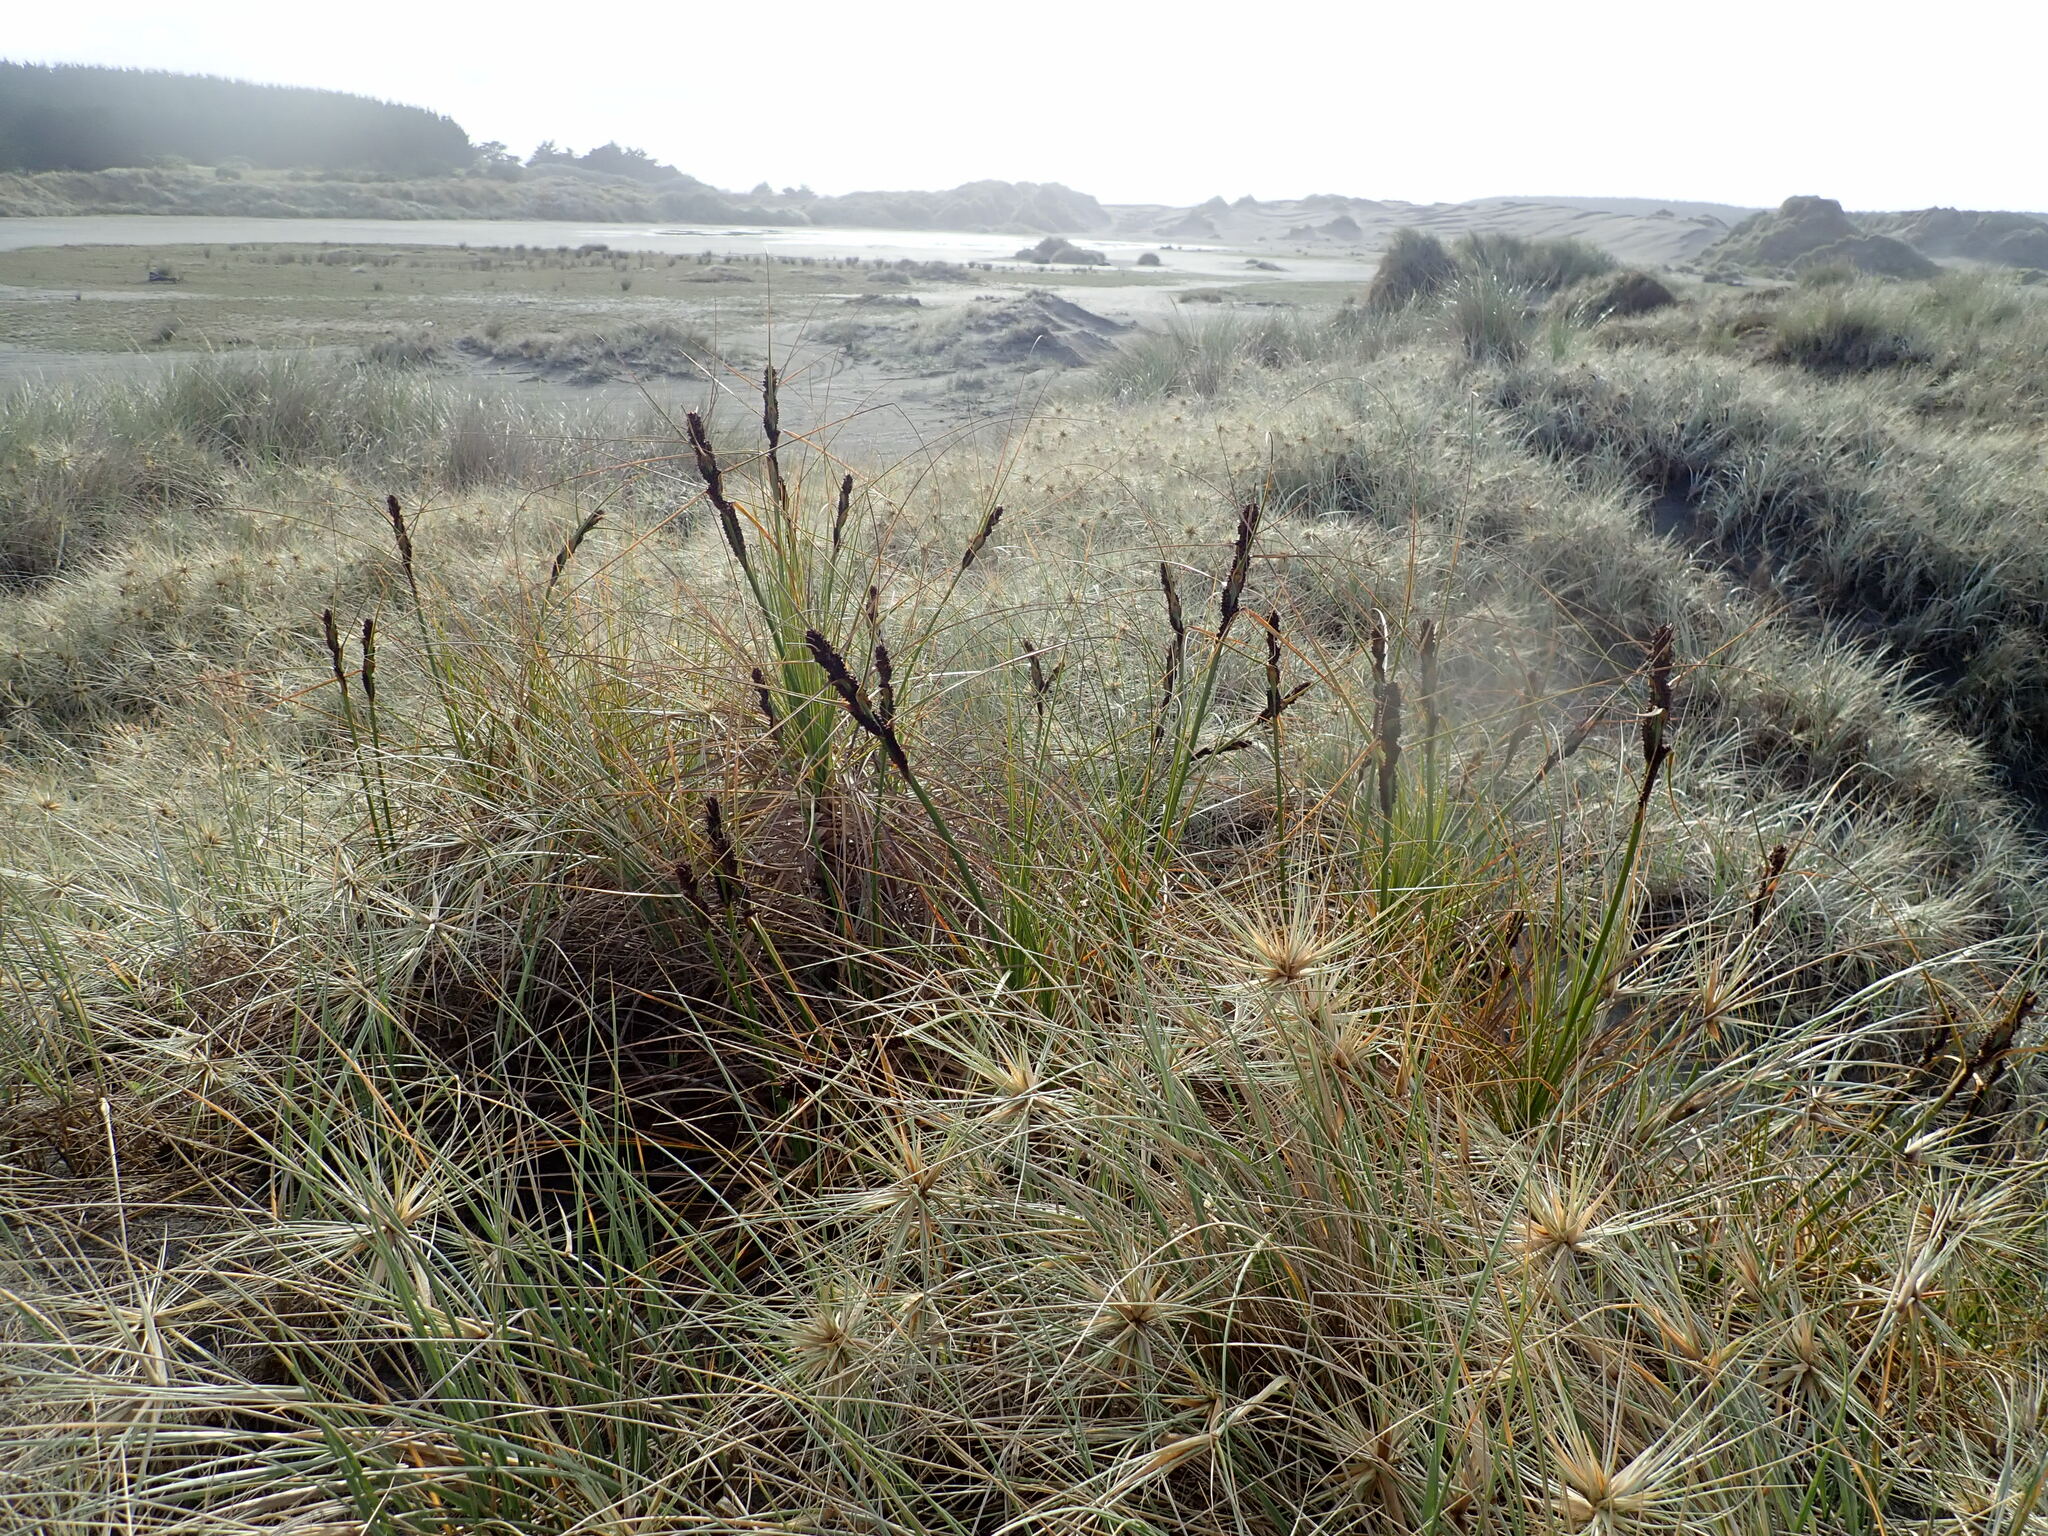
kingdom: Plantae
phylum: Tracheophyta
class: Liliopsida
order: Poales
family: Cyperaceae
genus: Ficinia
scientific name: Ficinia spiralis
